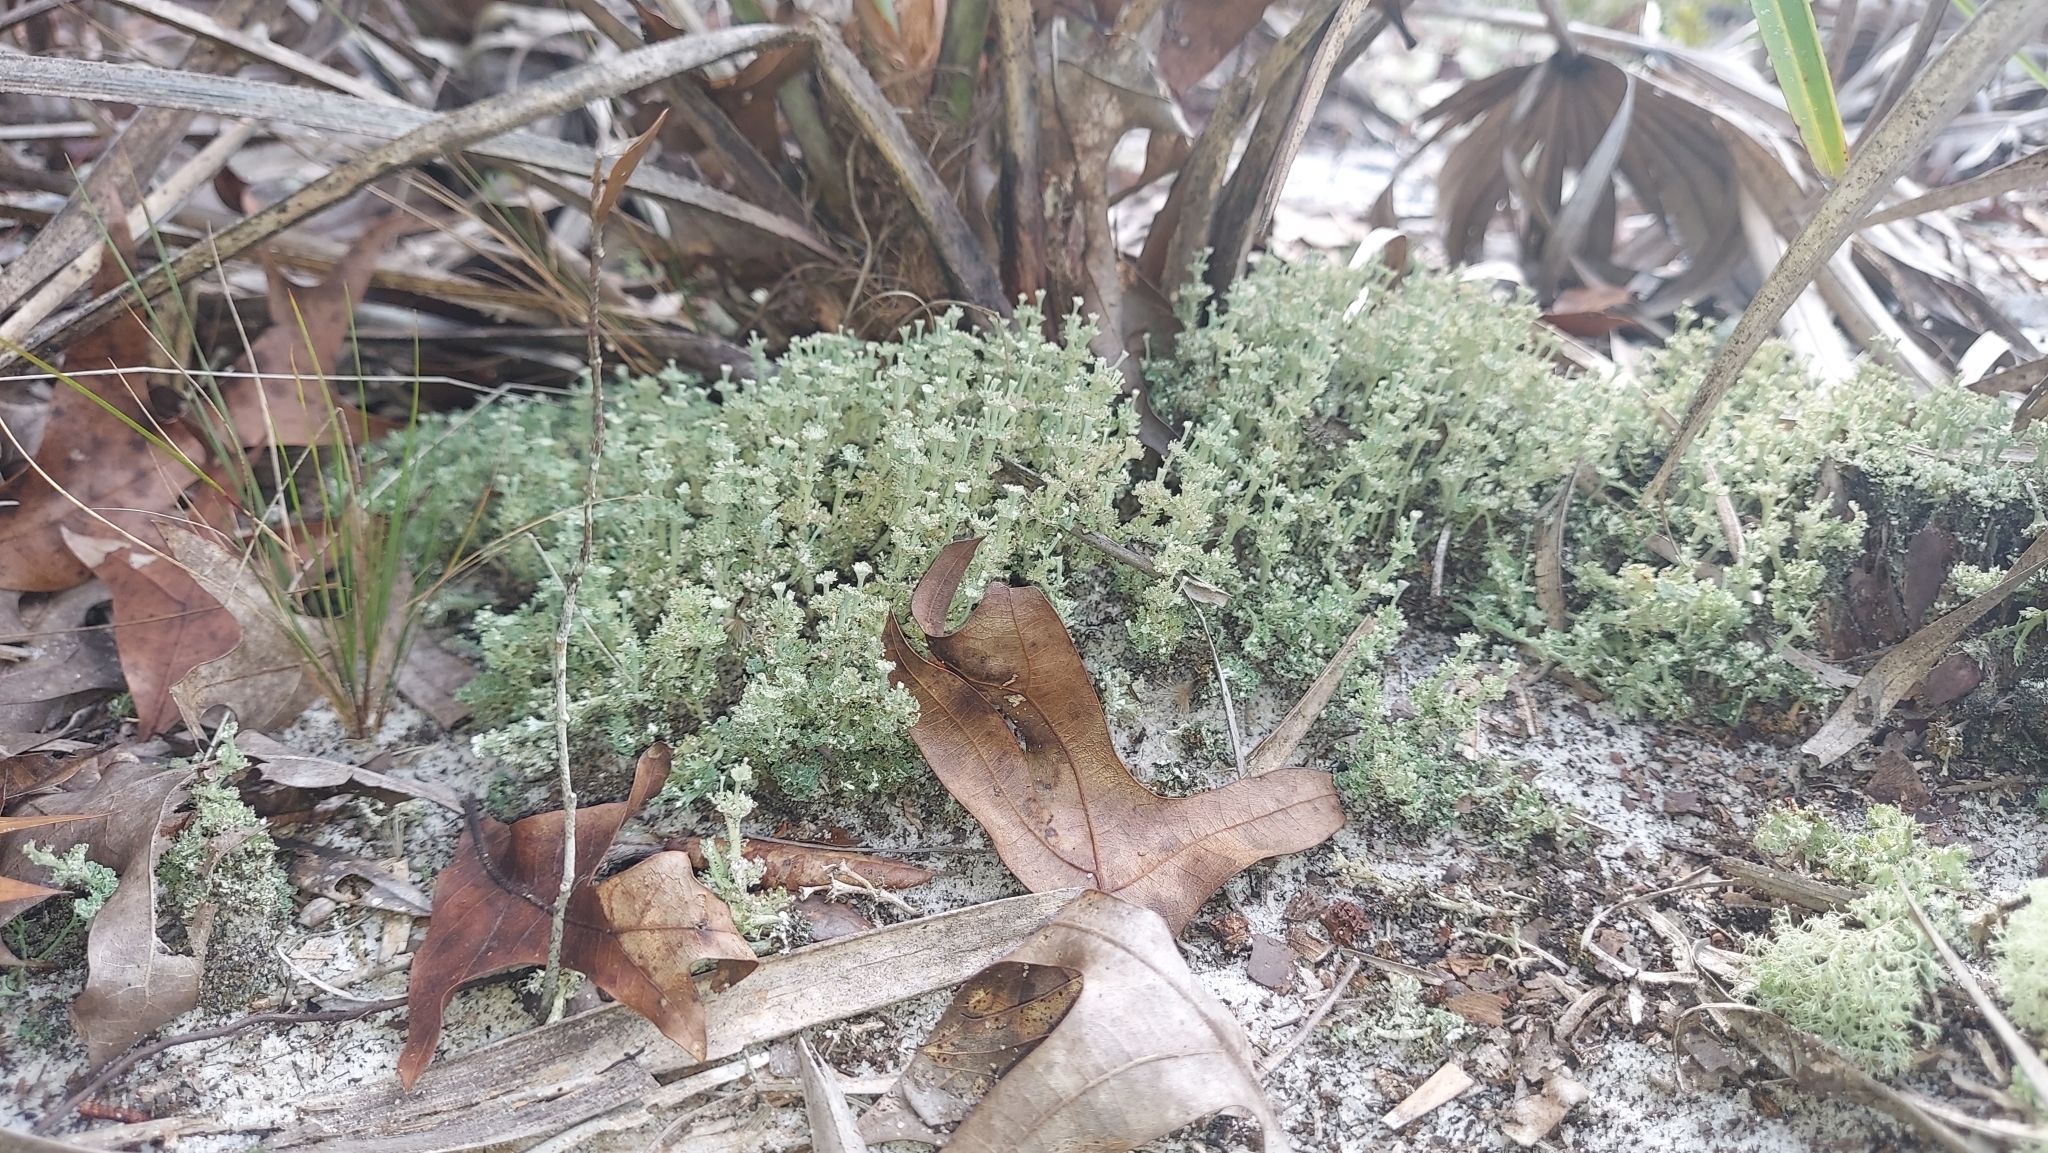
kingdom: Fungi
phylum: Ascomycota
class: Lecanoromycetes
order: Lecanorales
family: Cladoniaceae
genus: Cladonia
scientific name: Cladonia rappii
